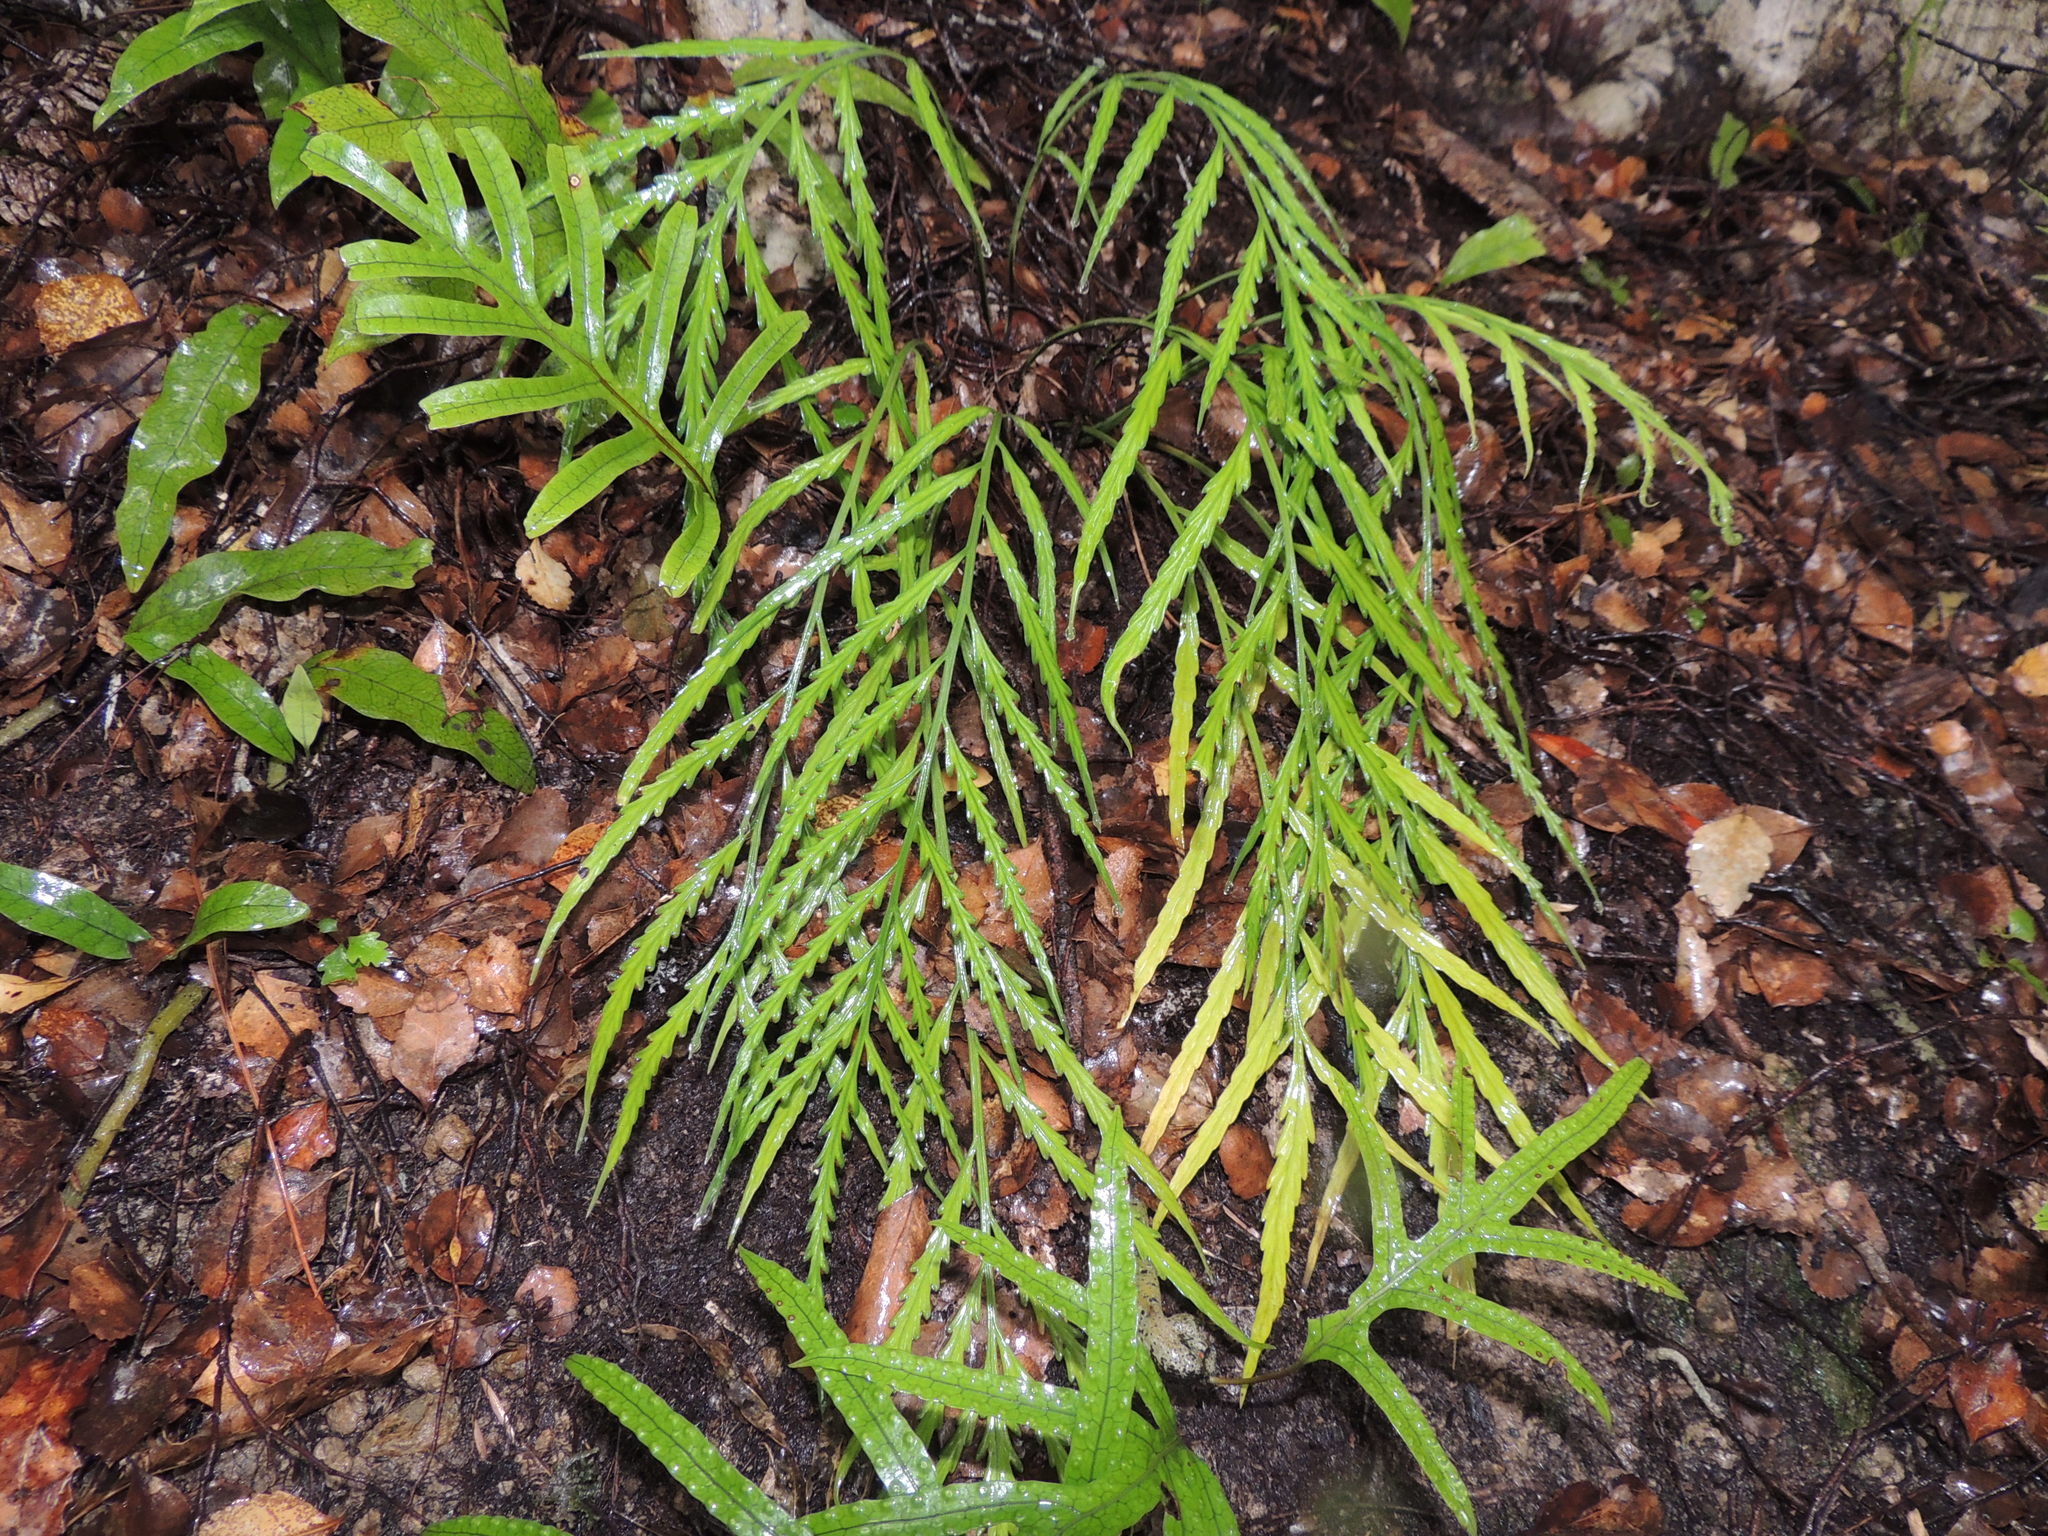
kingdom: Plantae
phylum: Tracheophyta
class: Polypodiopsida
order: Polypodiales
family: Aspleniaceae
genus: Asplenium
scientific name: Asplenium flaccidum
